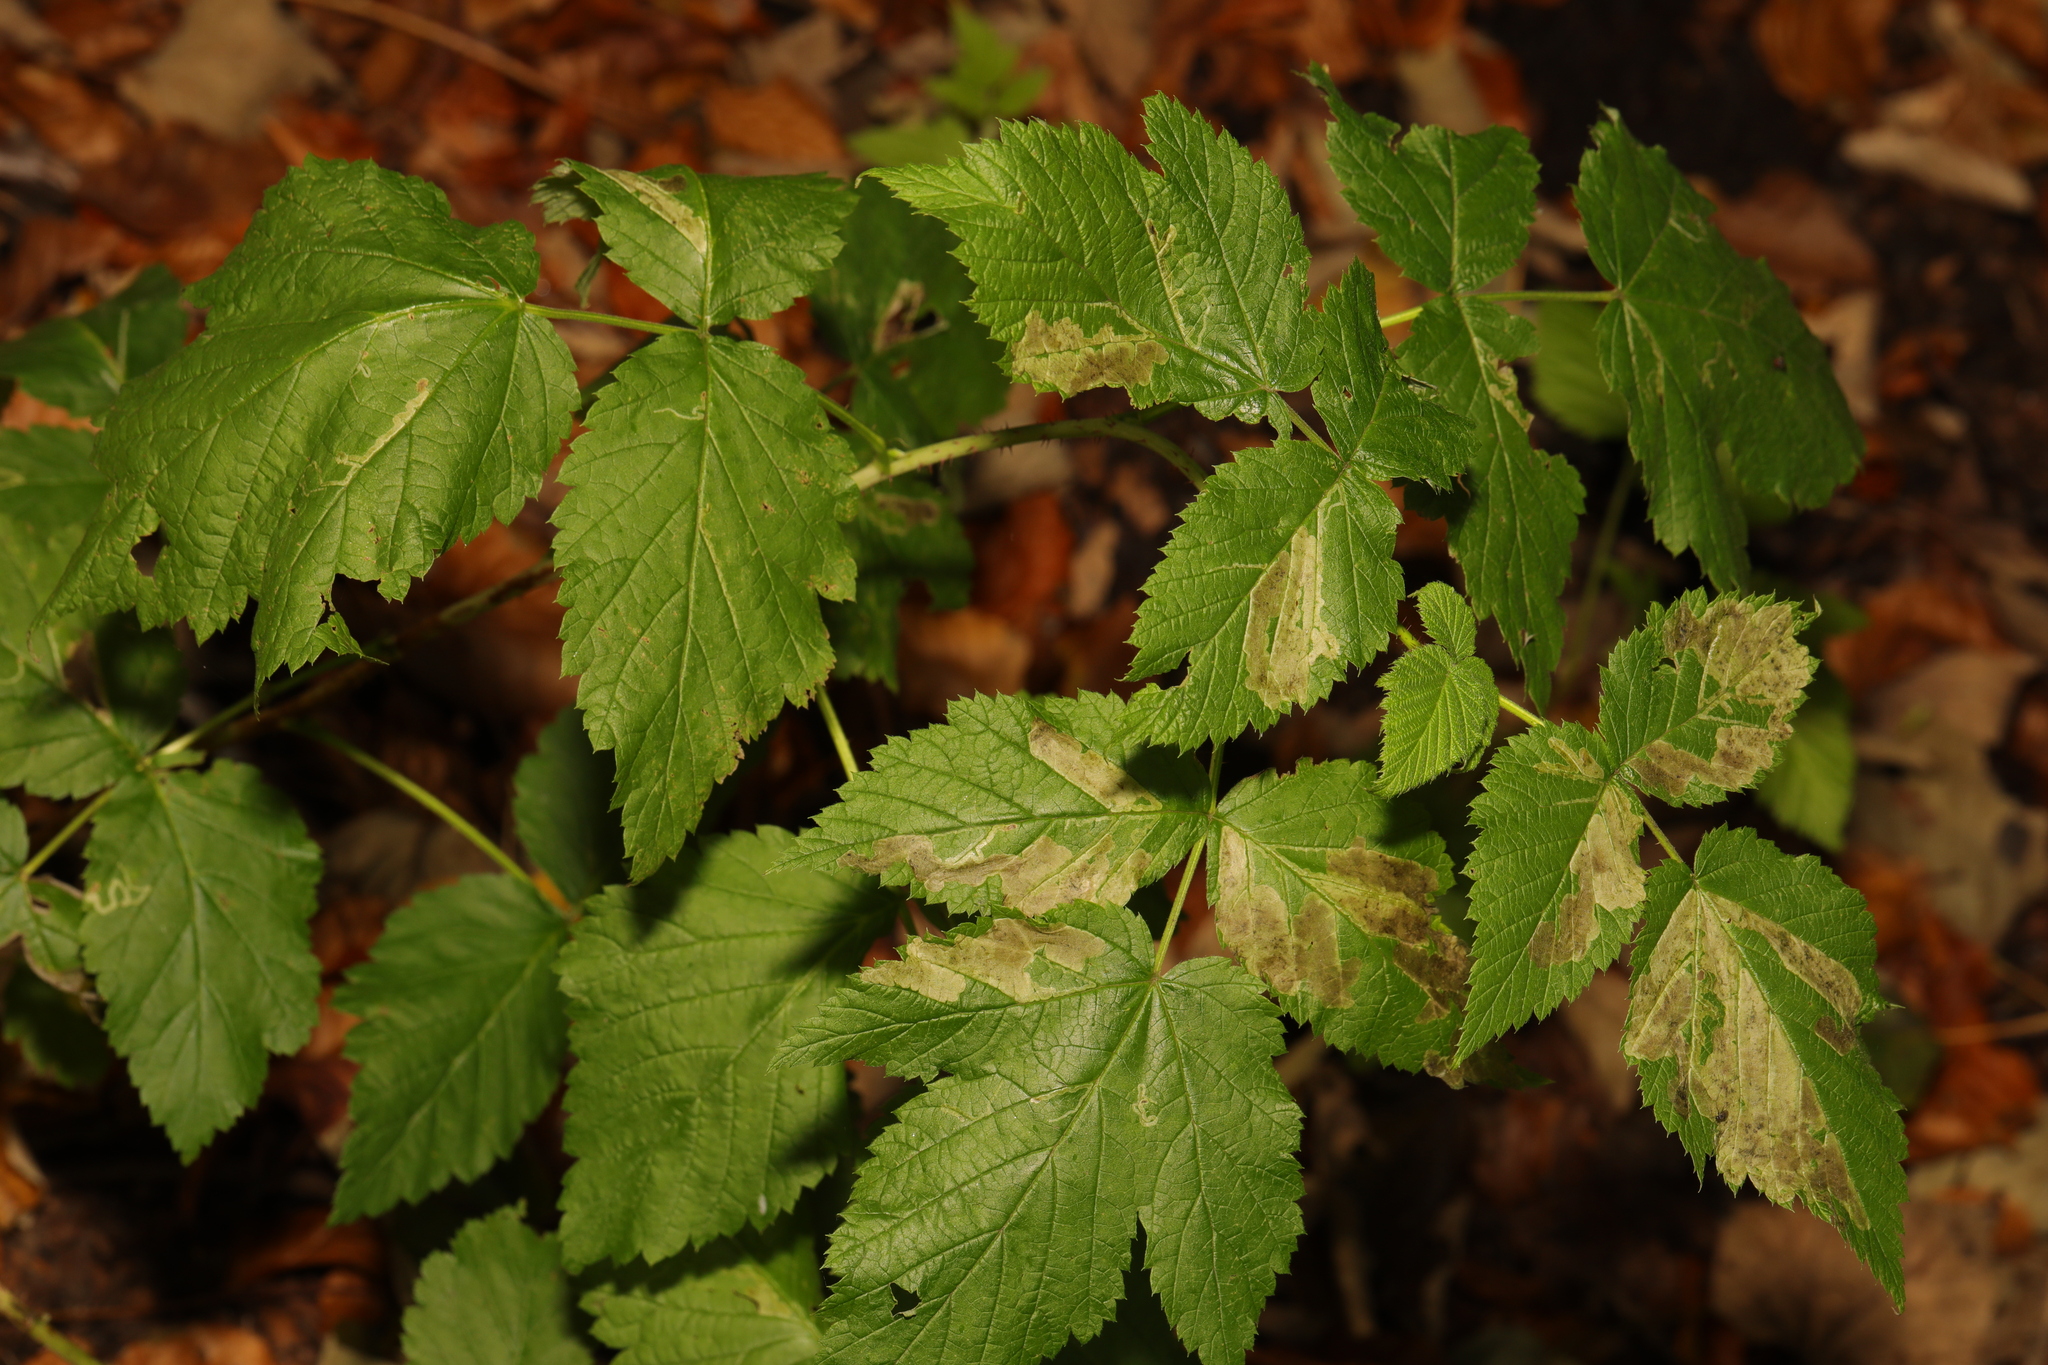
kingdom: Plantae
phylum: Tracheophyta
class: Magnoliopsida
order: Rosales
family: Rosaceae
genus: Rubus
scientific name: Rubus idaeus
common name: Raspberry
